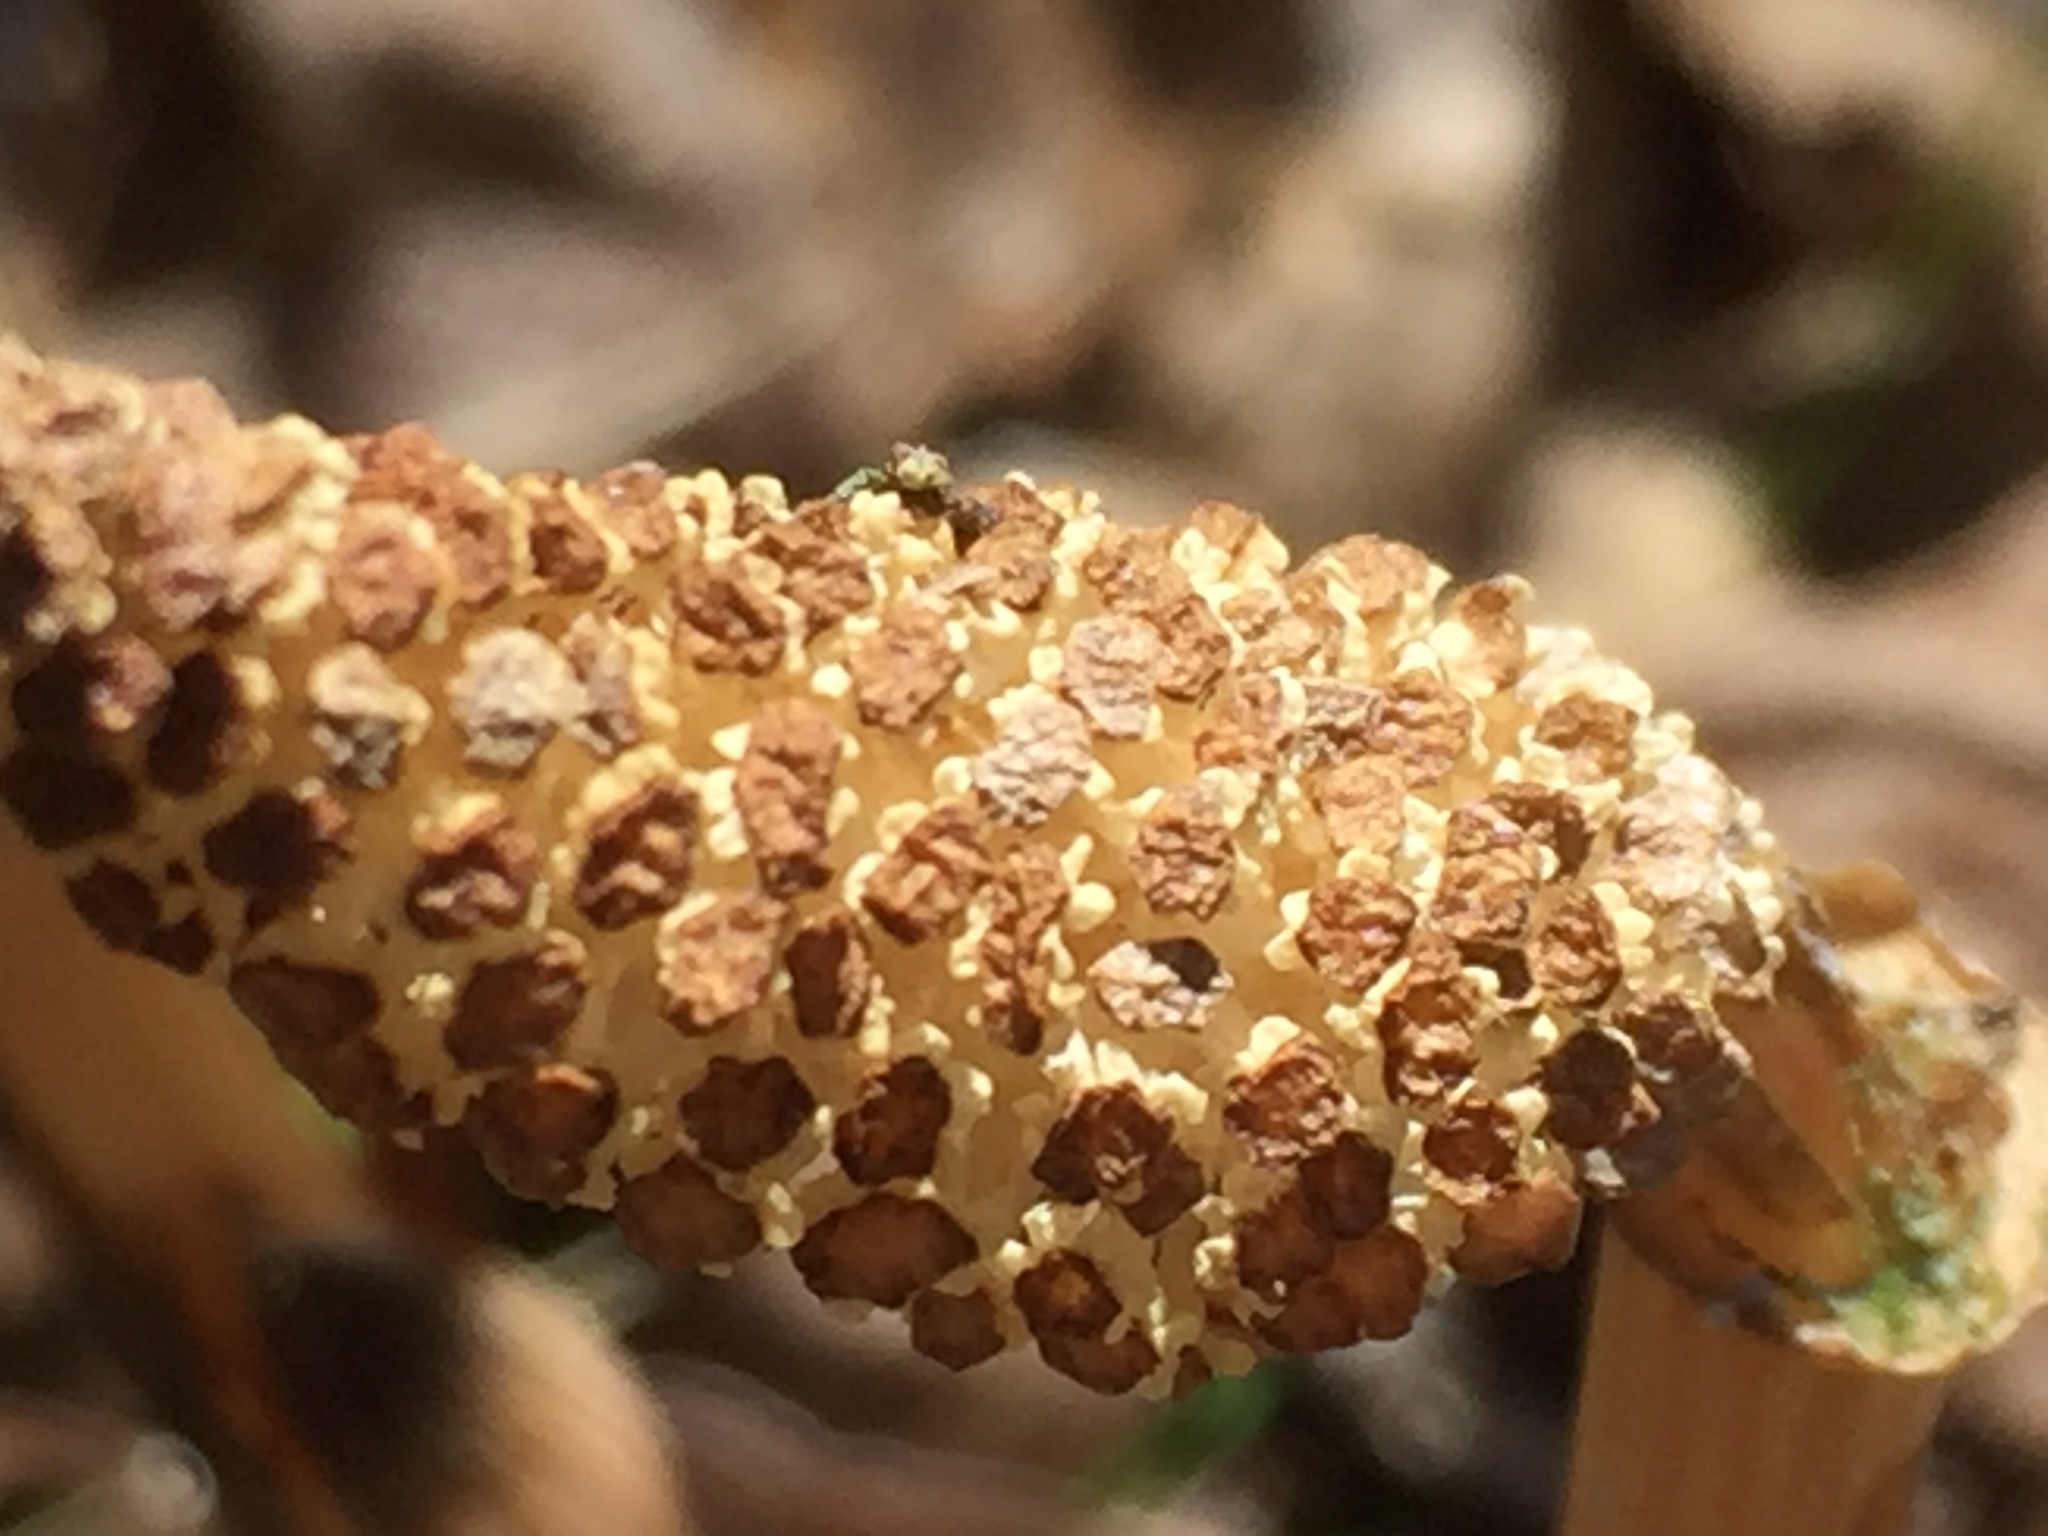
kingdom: Plantae
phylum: Tracheophyta
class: Polypodiopsida
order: Equisetales
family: Equisetaceae
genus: Equisetum
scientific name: Equisetum arvense
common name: Field horsetail
